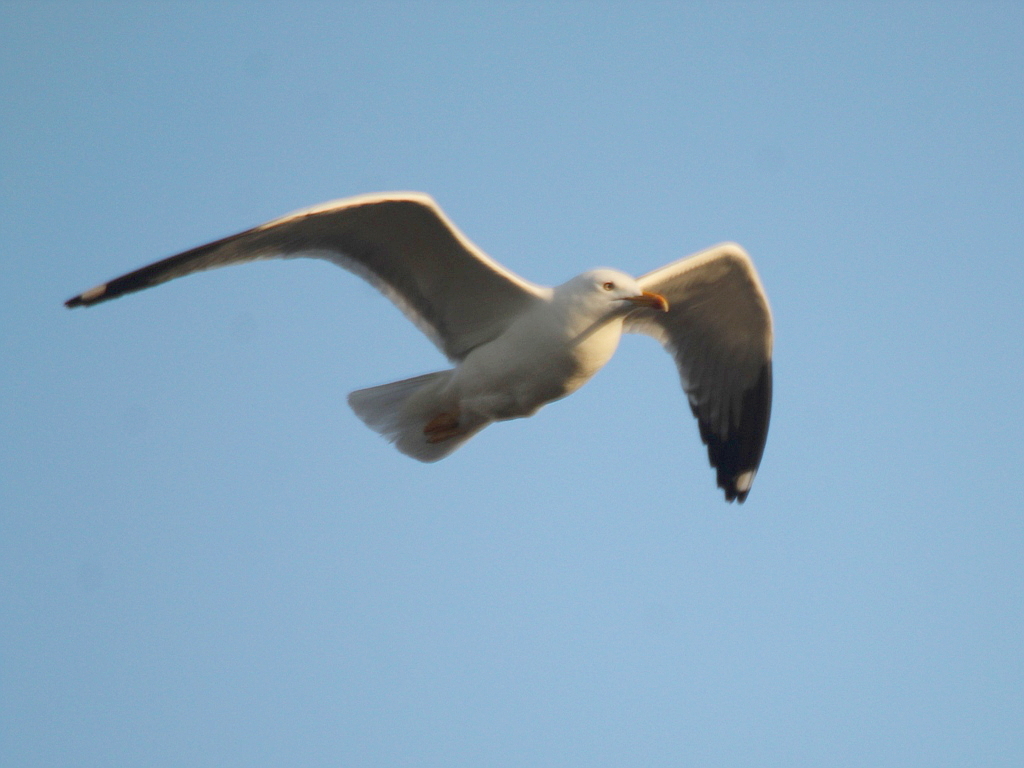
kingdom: Animalia
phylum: Chordata
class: Aves
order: Charadriiformes
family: Laridae
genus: Larus
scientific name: Larus fuscus
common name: Lesser black-backed gull
